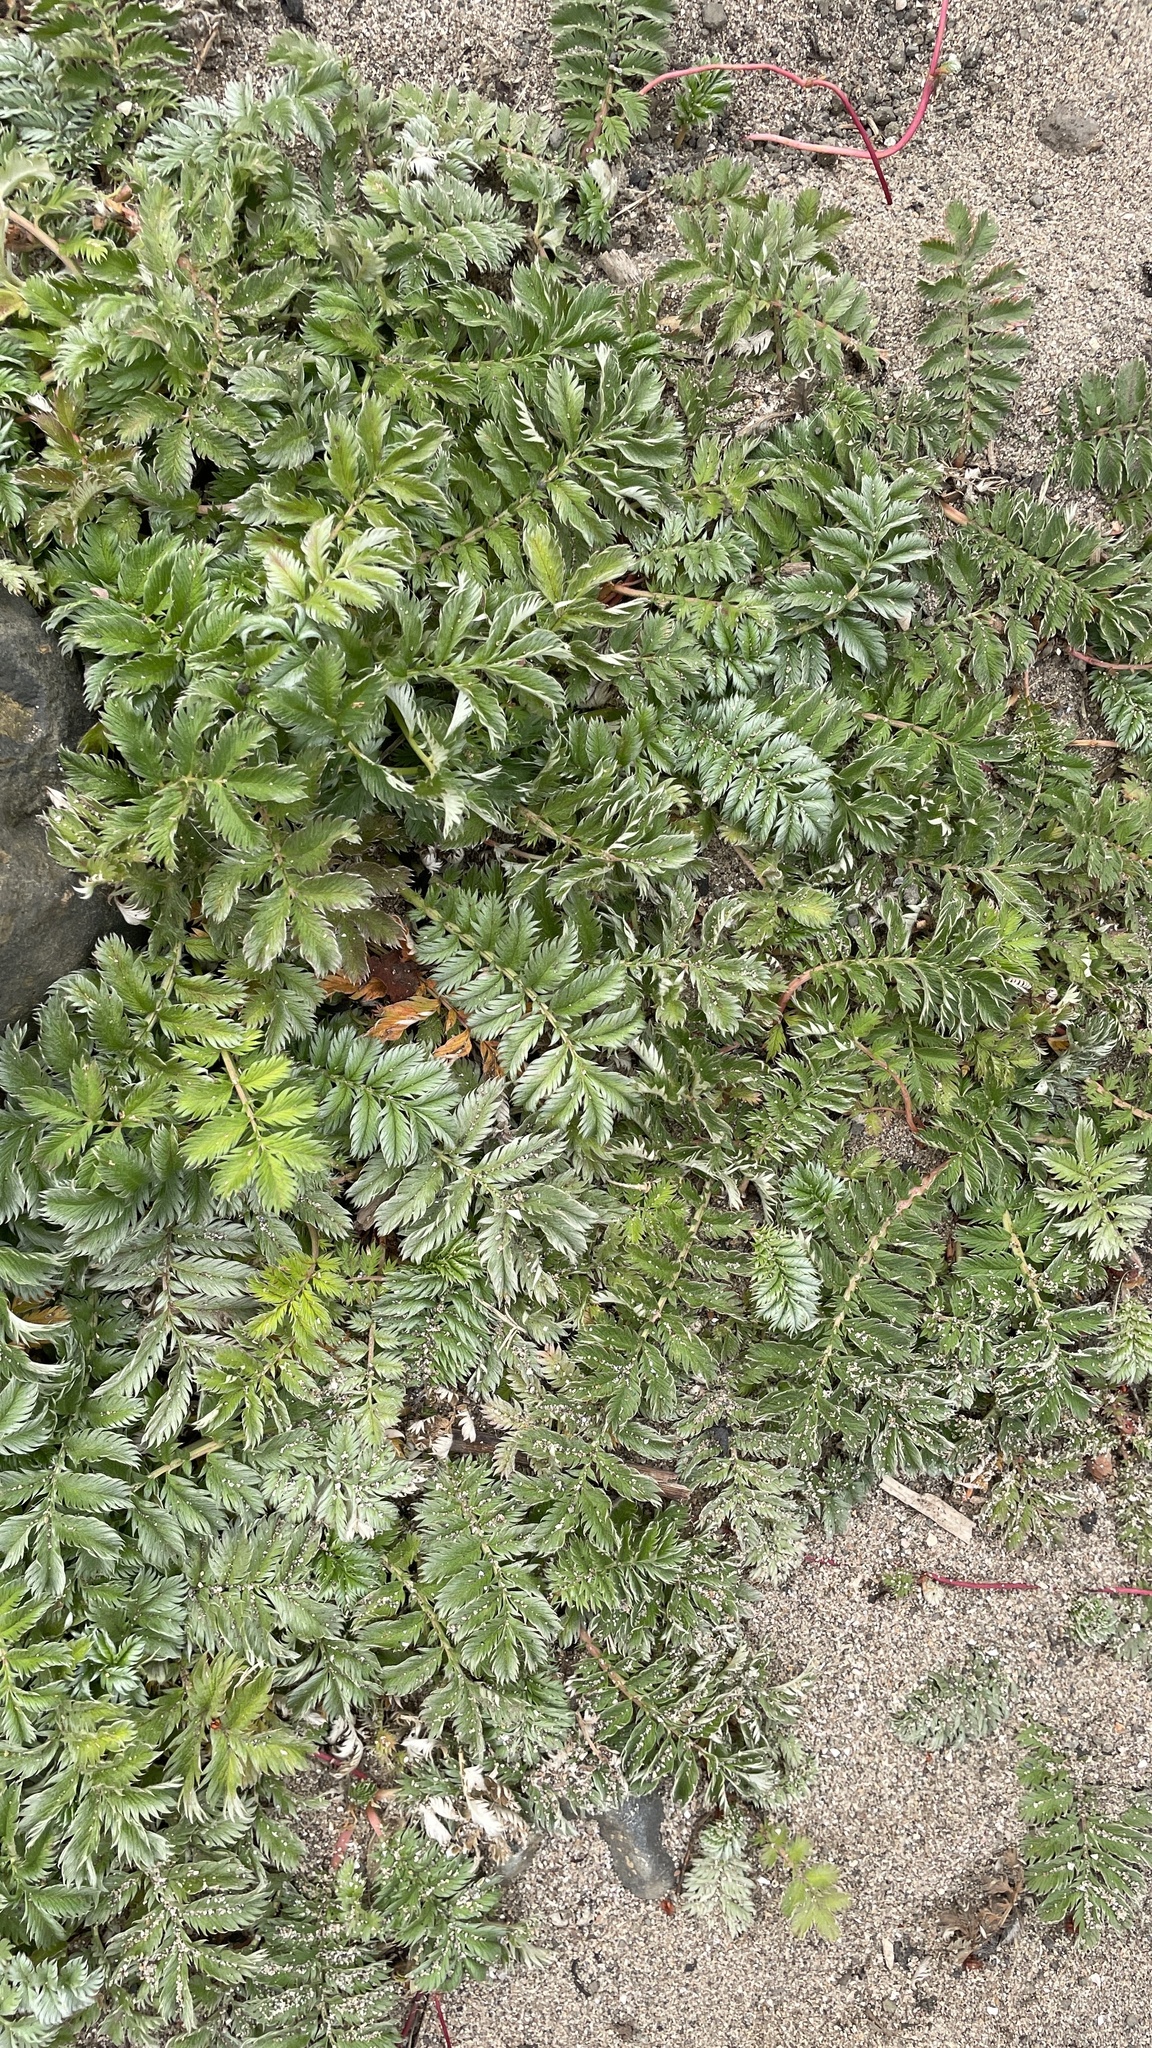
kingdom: Plantae
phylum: Tracheophyta
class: Magnoliopsida
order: Rosales
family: Rosaceae
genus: Argentina
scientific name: Argentina anserina
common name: Common silverweed
